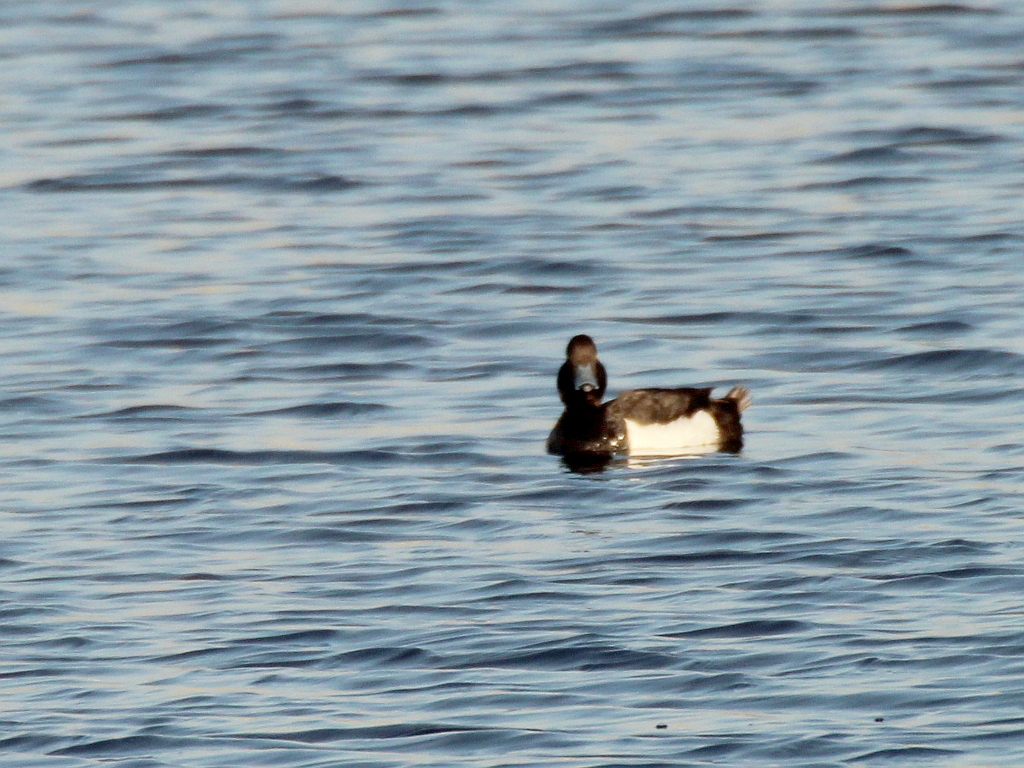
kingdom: Animalia
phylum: Chordata
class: Aves
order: Anseriformes
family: Anatidae
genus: Aythya
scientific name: Aythya fuligula
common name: Tufted duck
